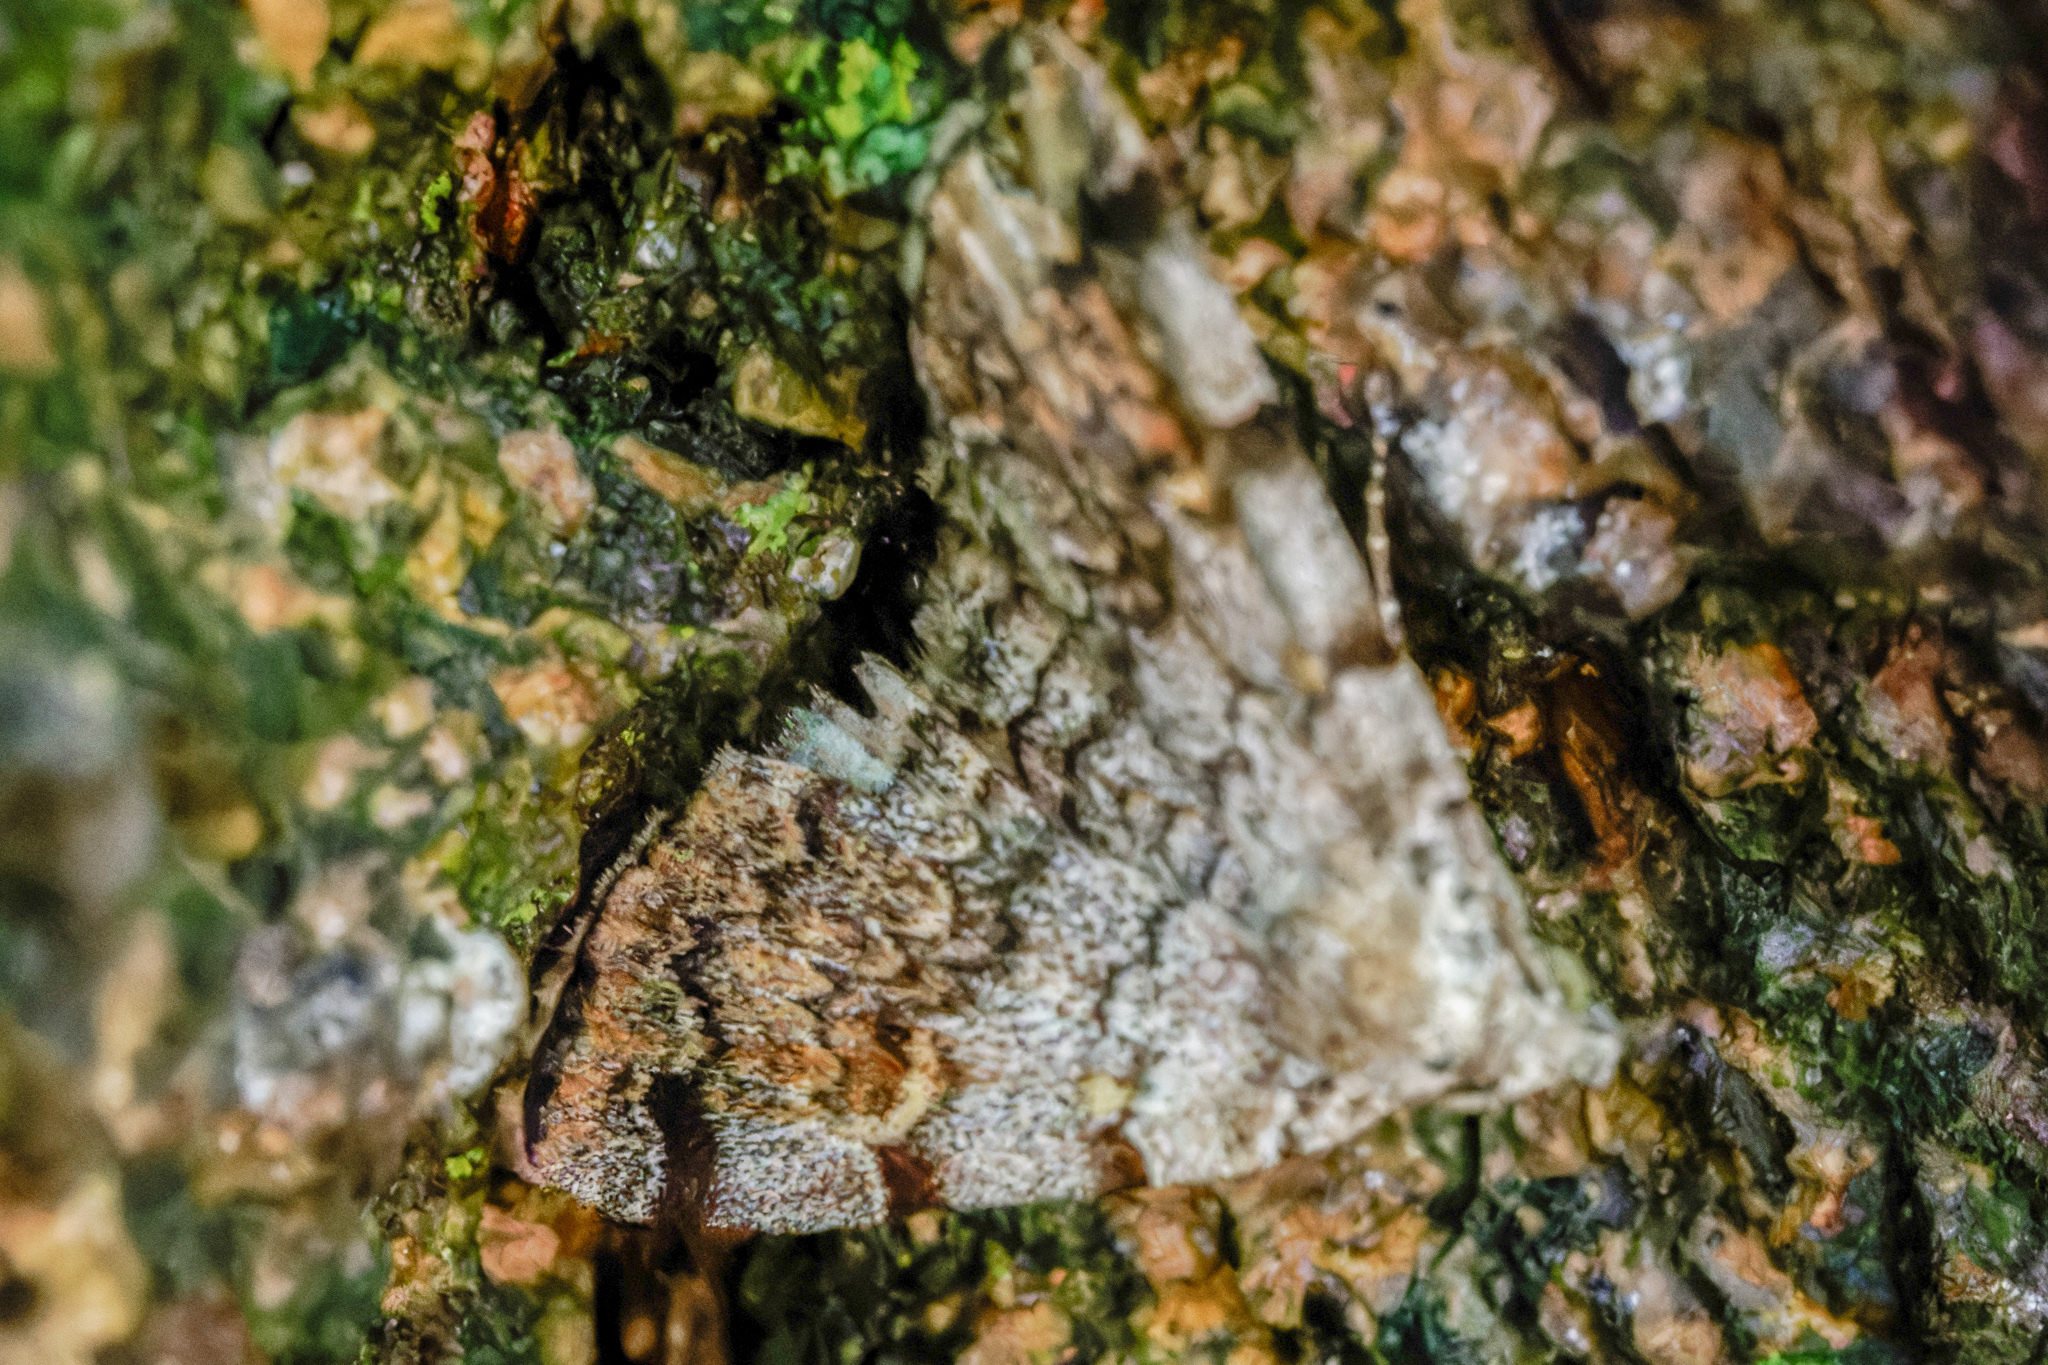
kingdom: Animalia
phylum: Arthropoda
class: Insecta
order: Lepidoptera
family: Erebidae
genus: Idia
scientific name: Idia americalis
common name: American idia moth
